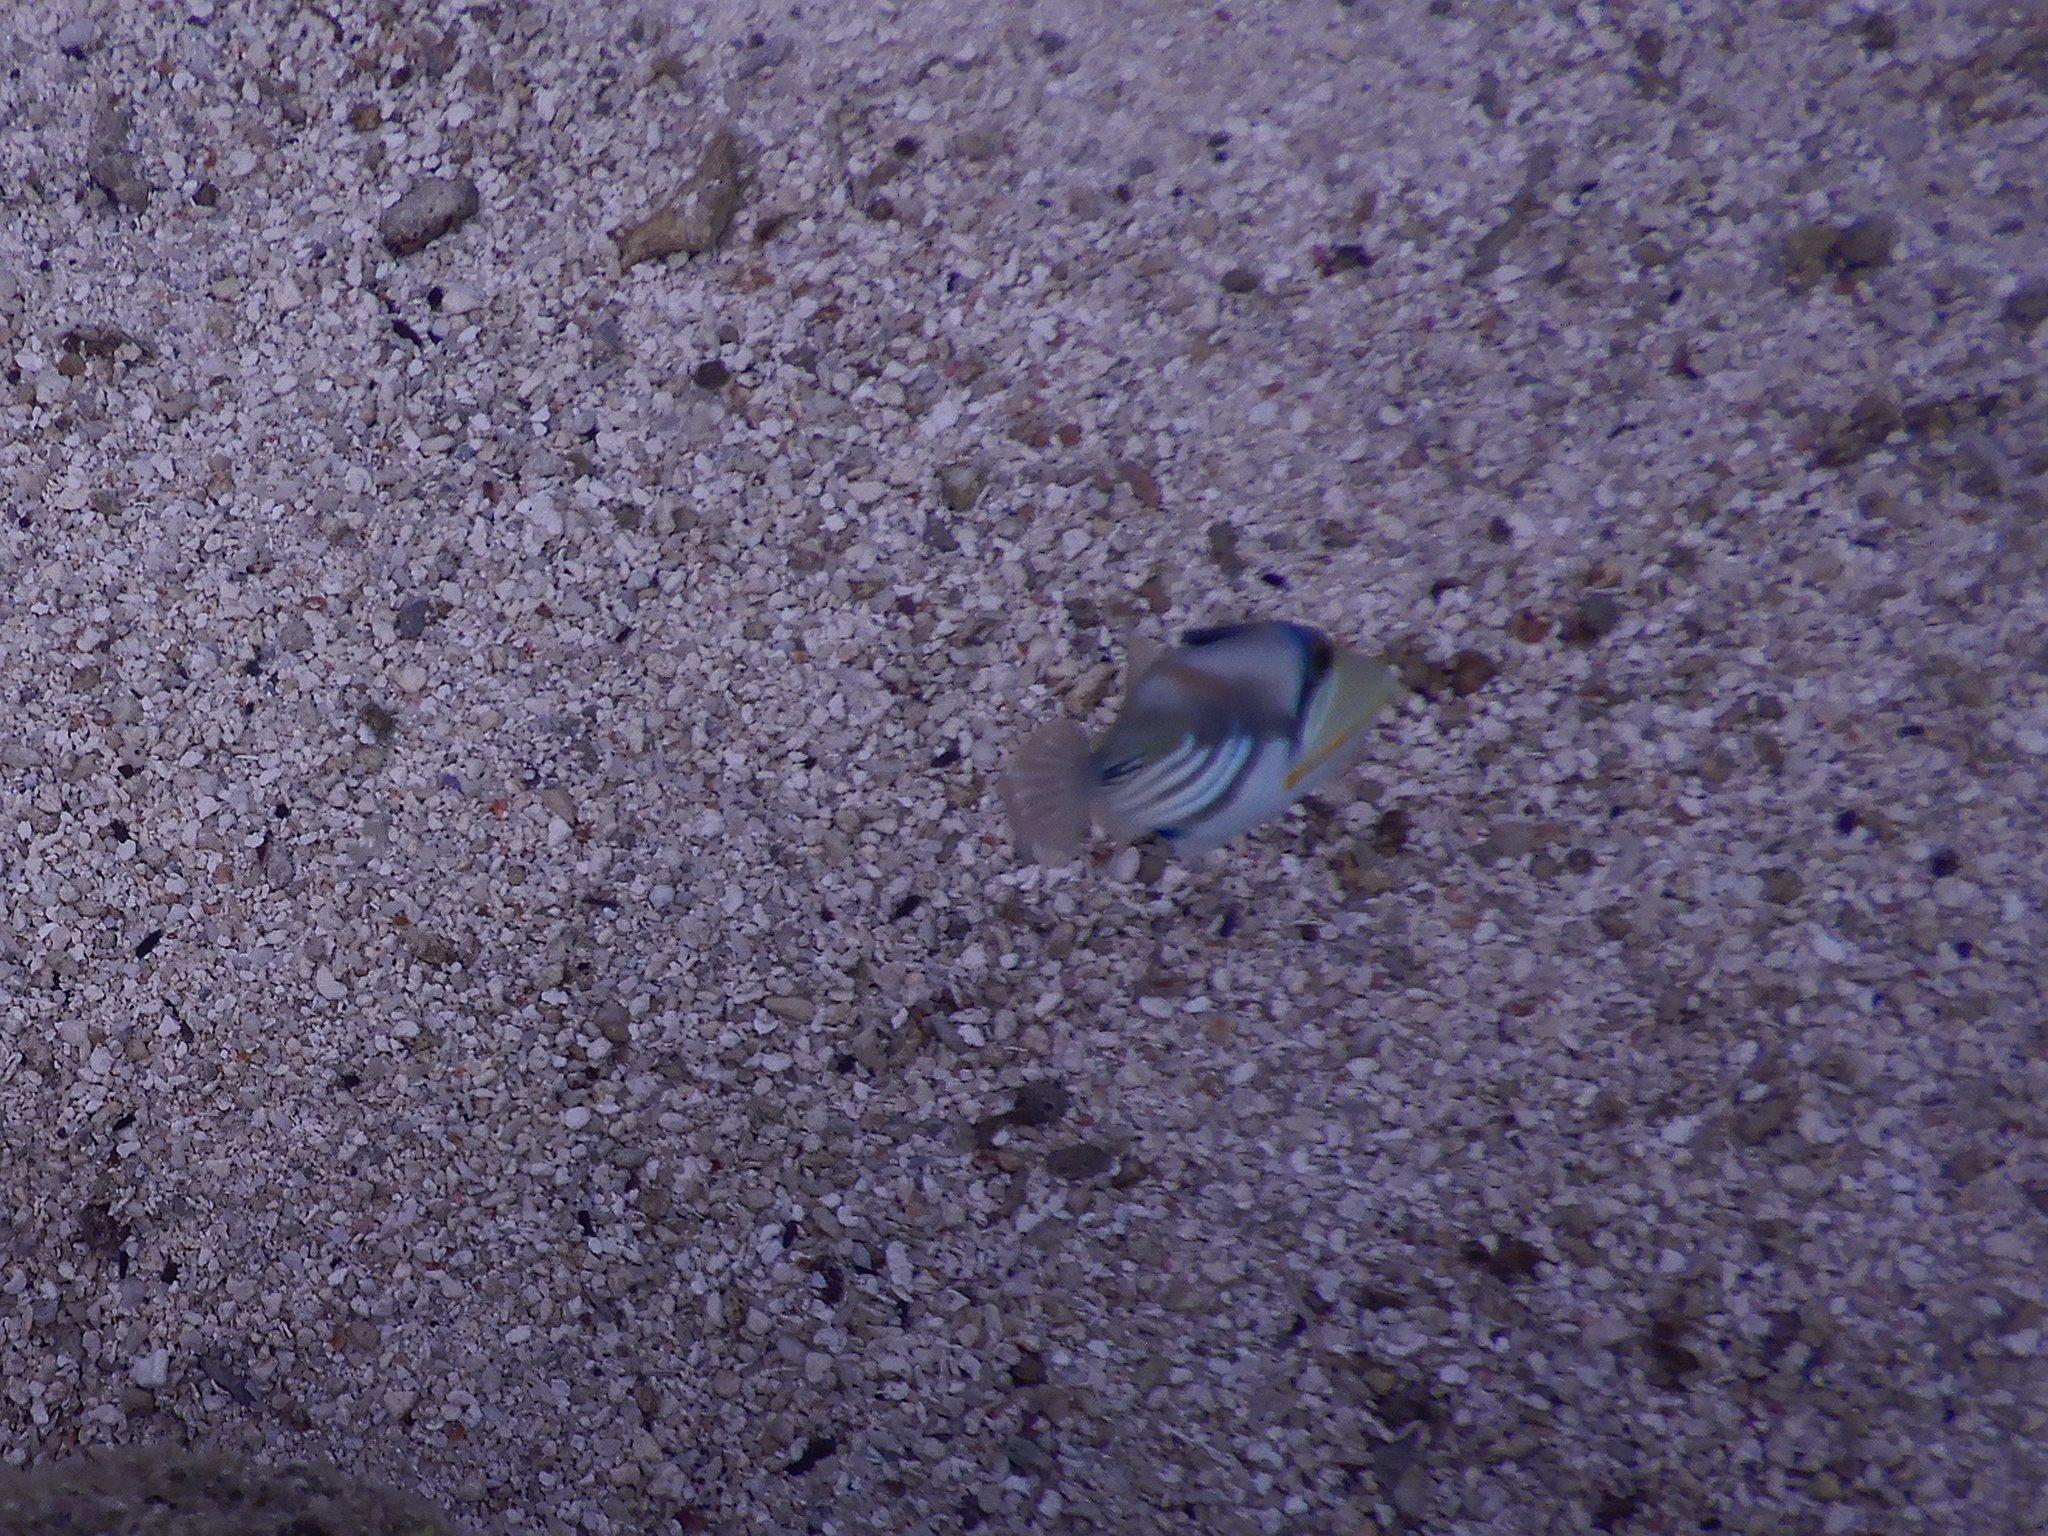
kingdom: Animalia
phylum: Chordata
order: Tetraodontiformes
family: Balistidae
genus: Rhinecanthus
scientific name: Rhinecanthus aculeatus
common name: White-banded triggerfish
